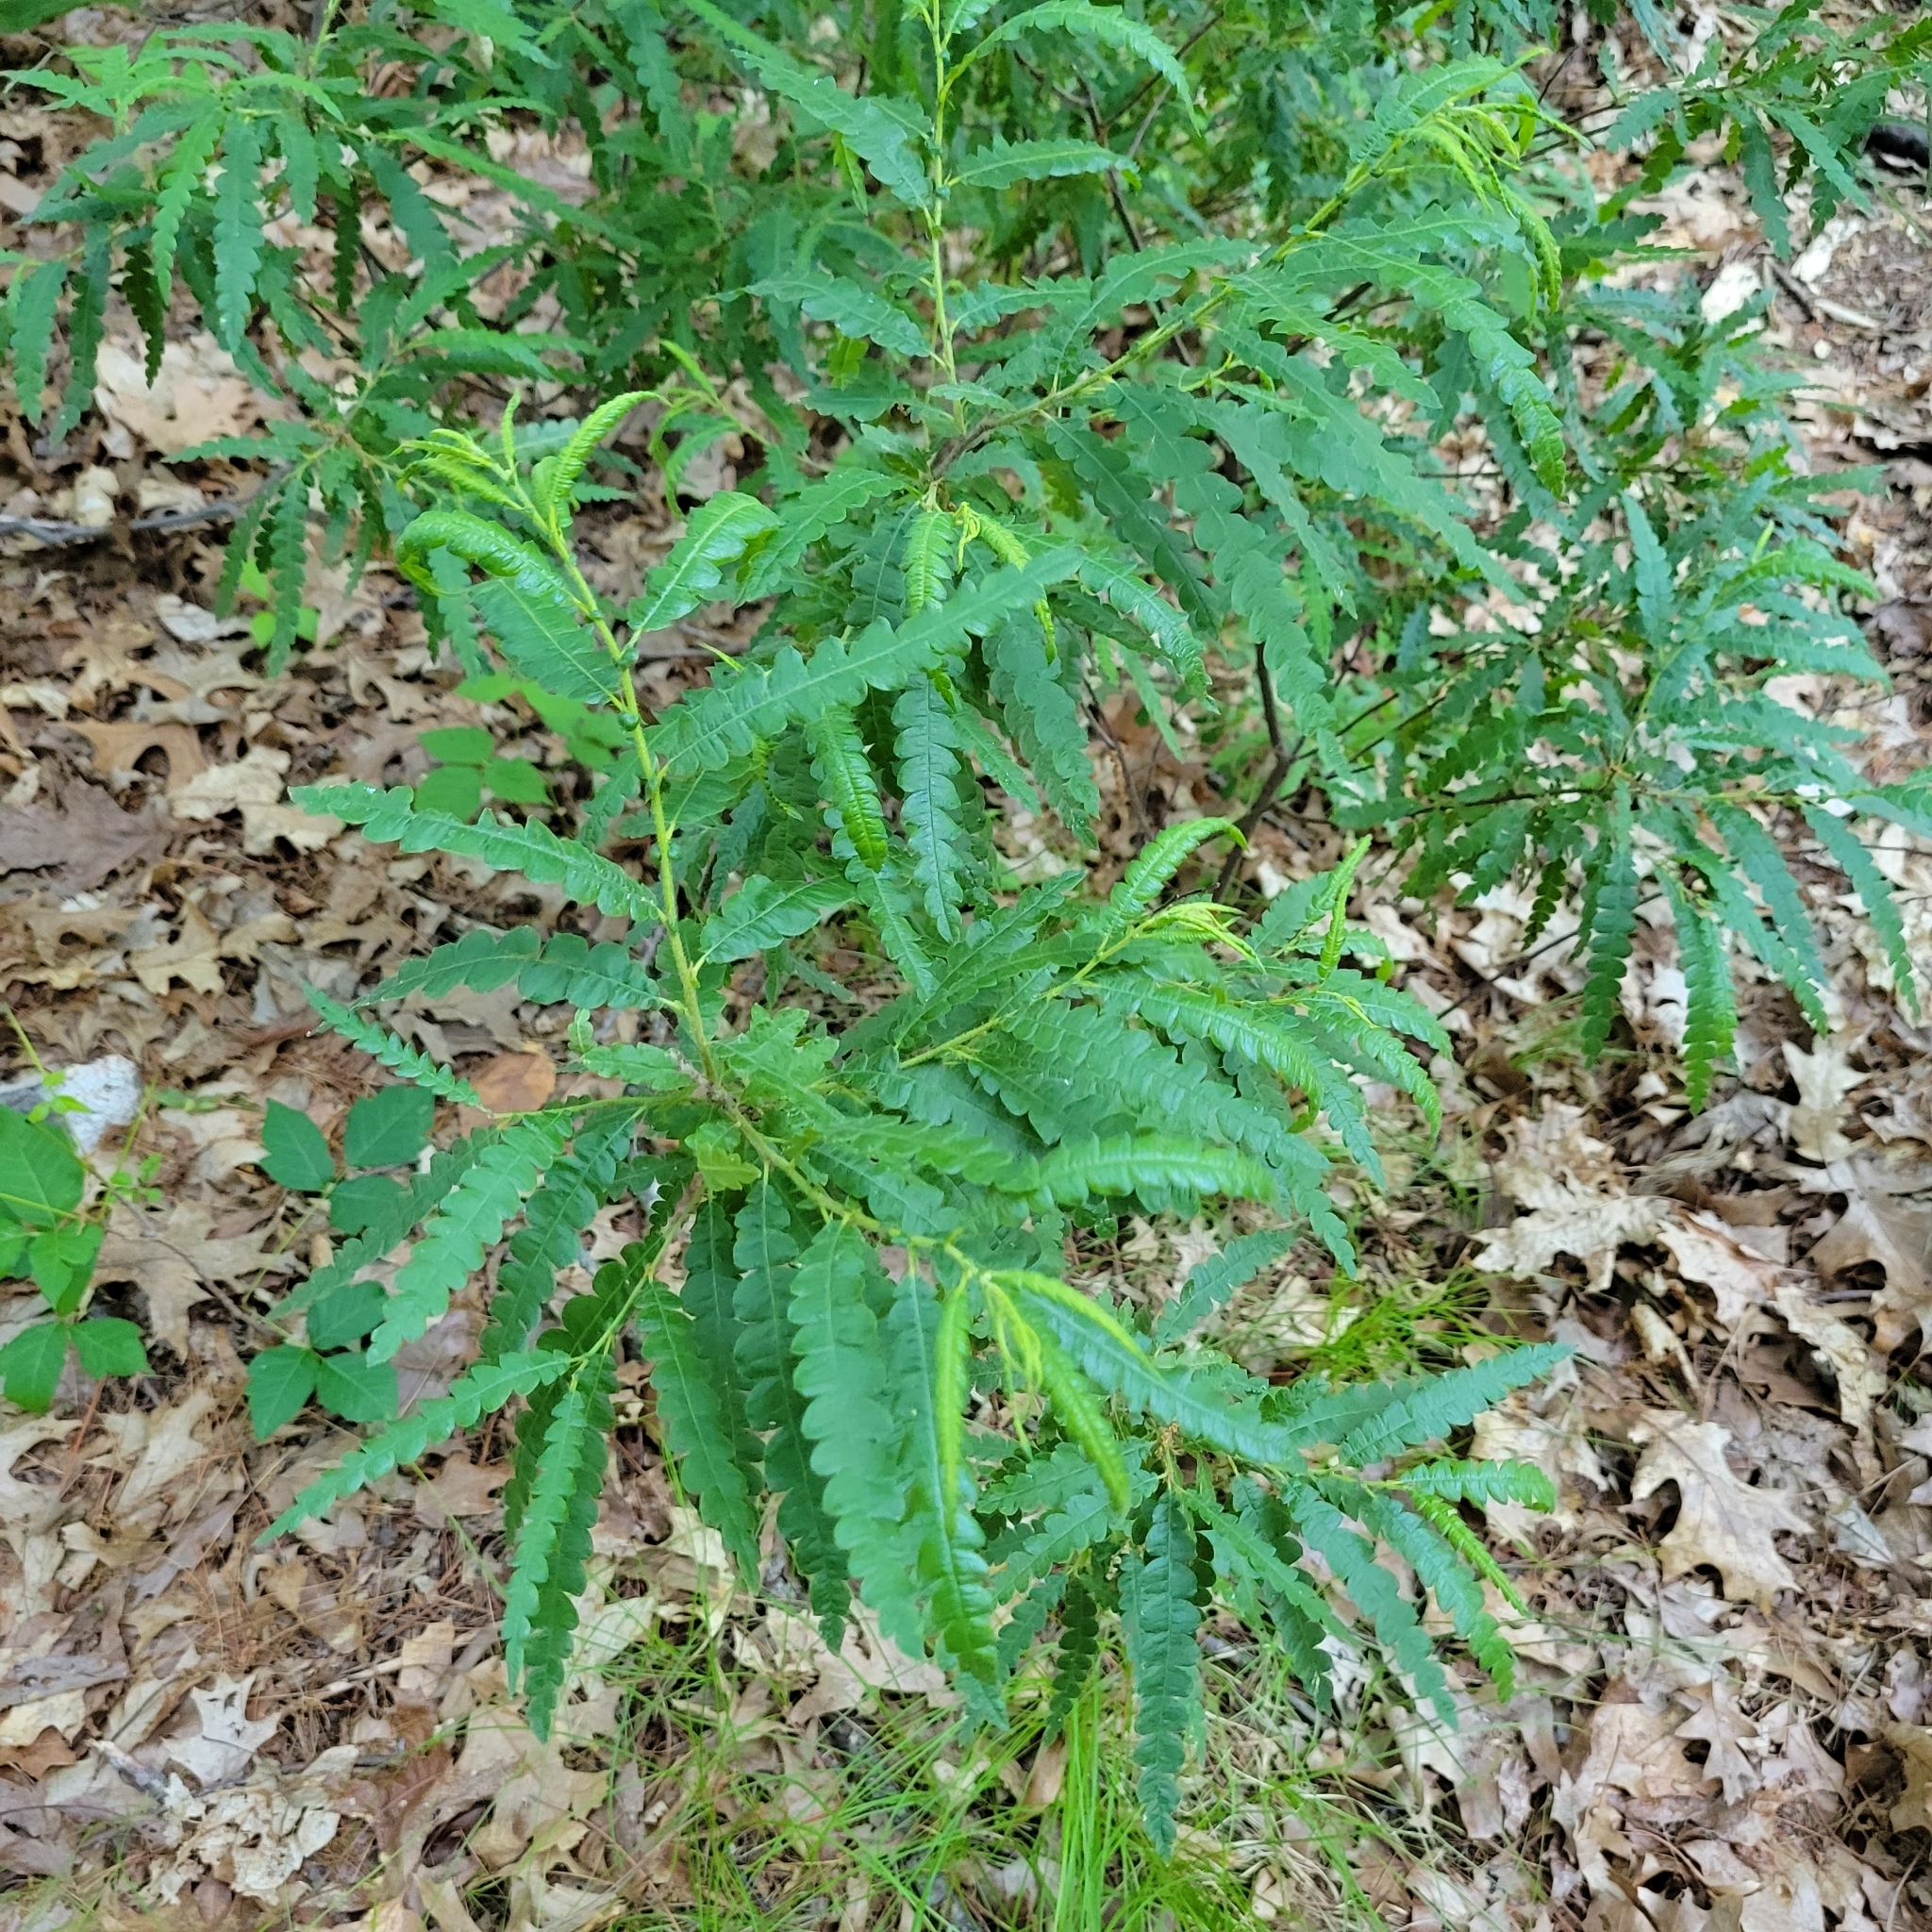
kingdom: Plantae
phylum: Tracheophyta
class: Magnoliopsida
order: Fagales
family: Myricaceae
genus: Comptonia
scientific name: Comptonia peregrina
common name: Sweet-fern
